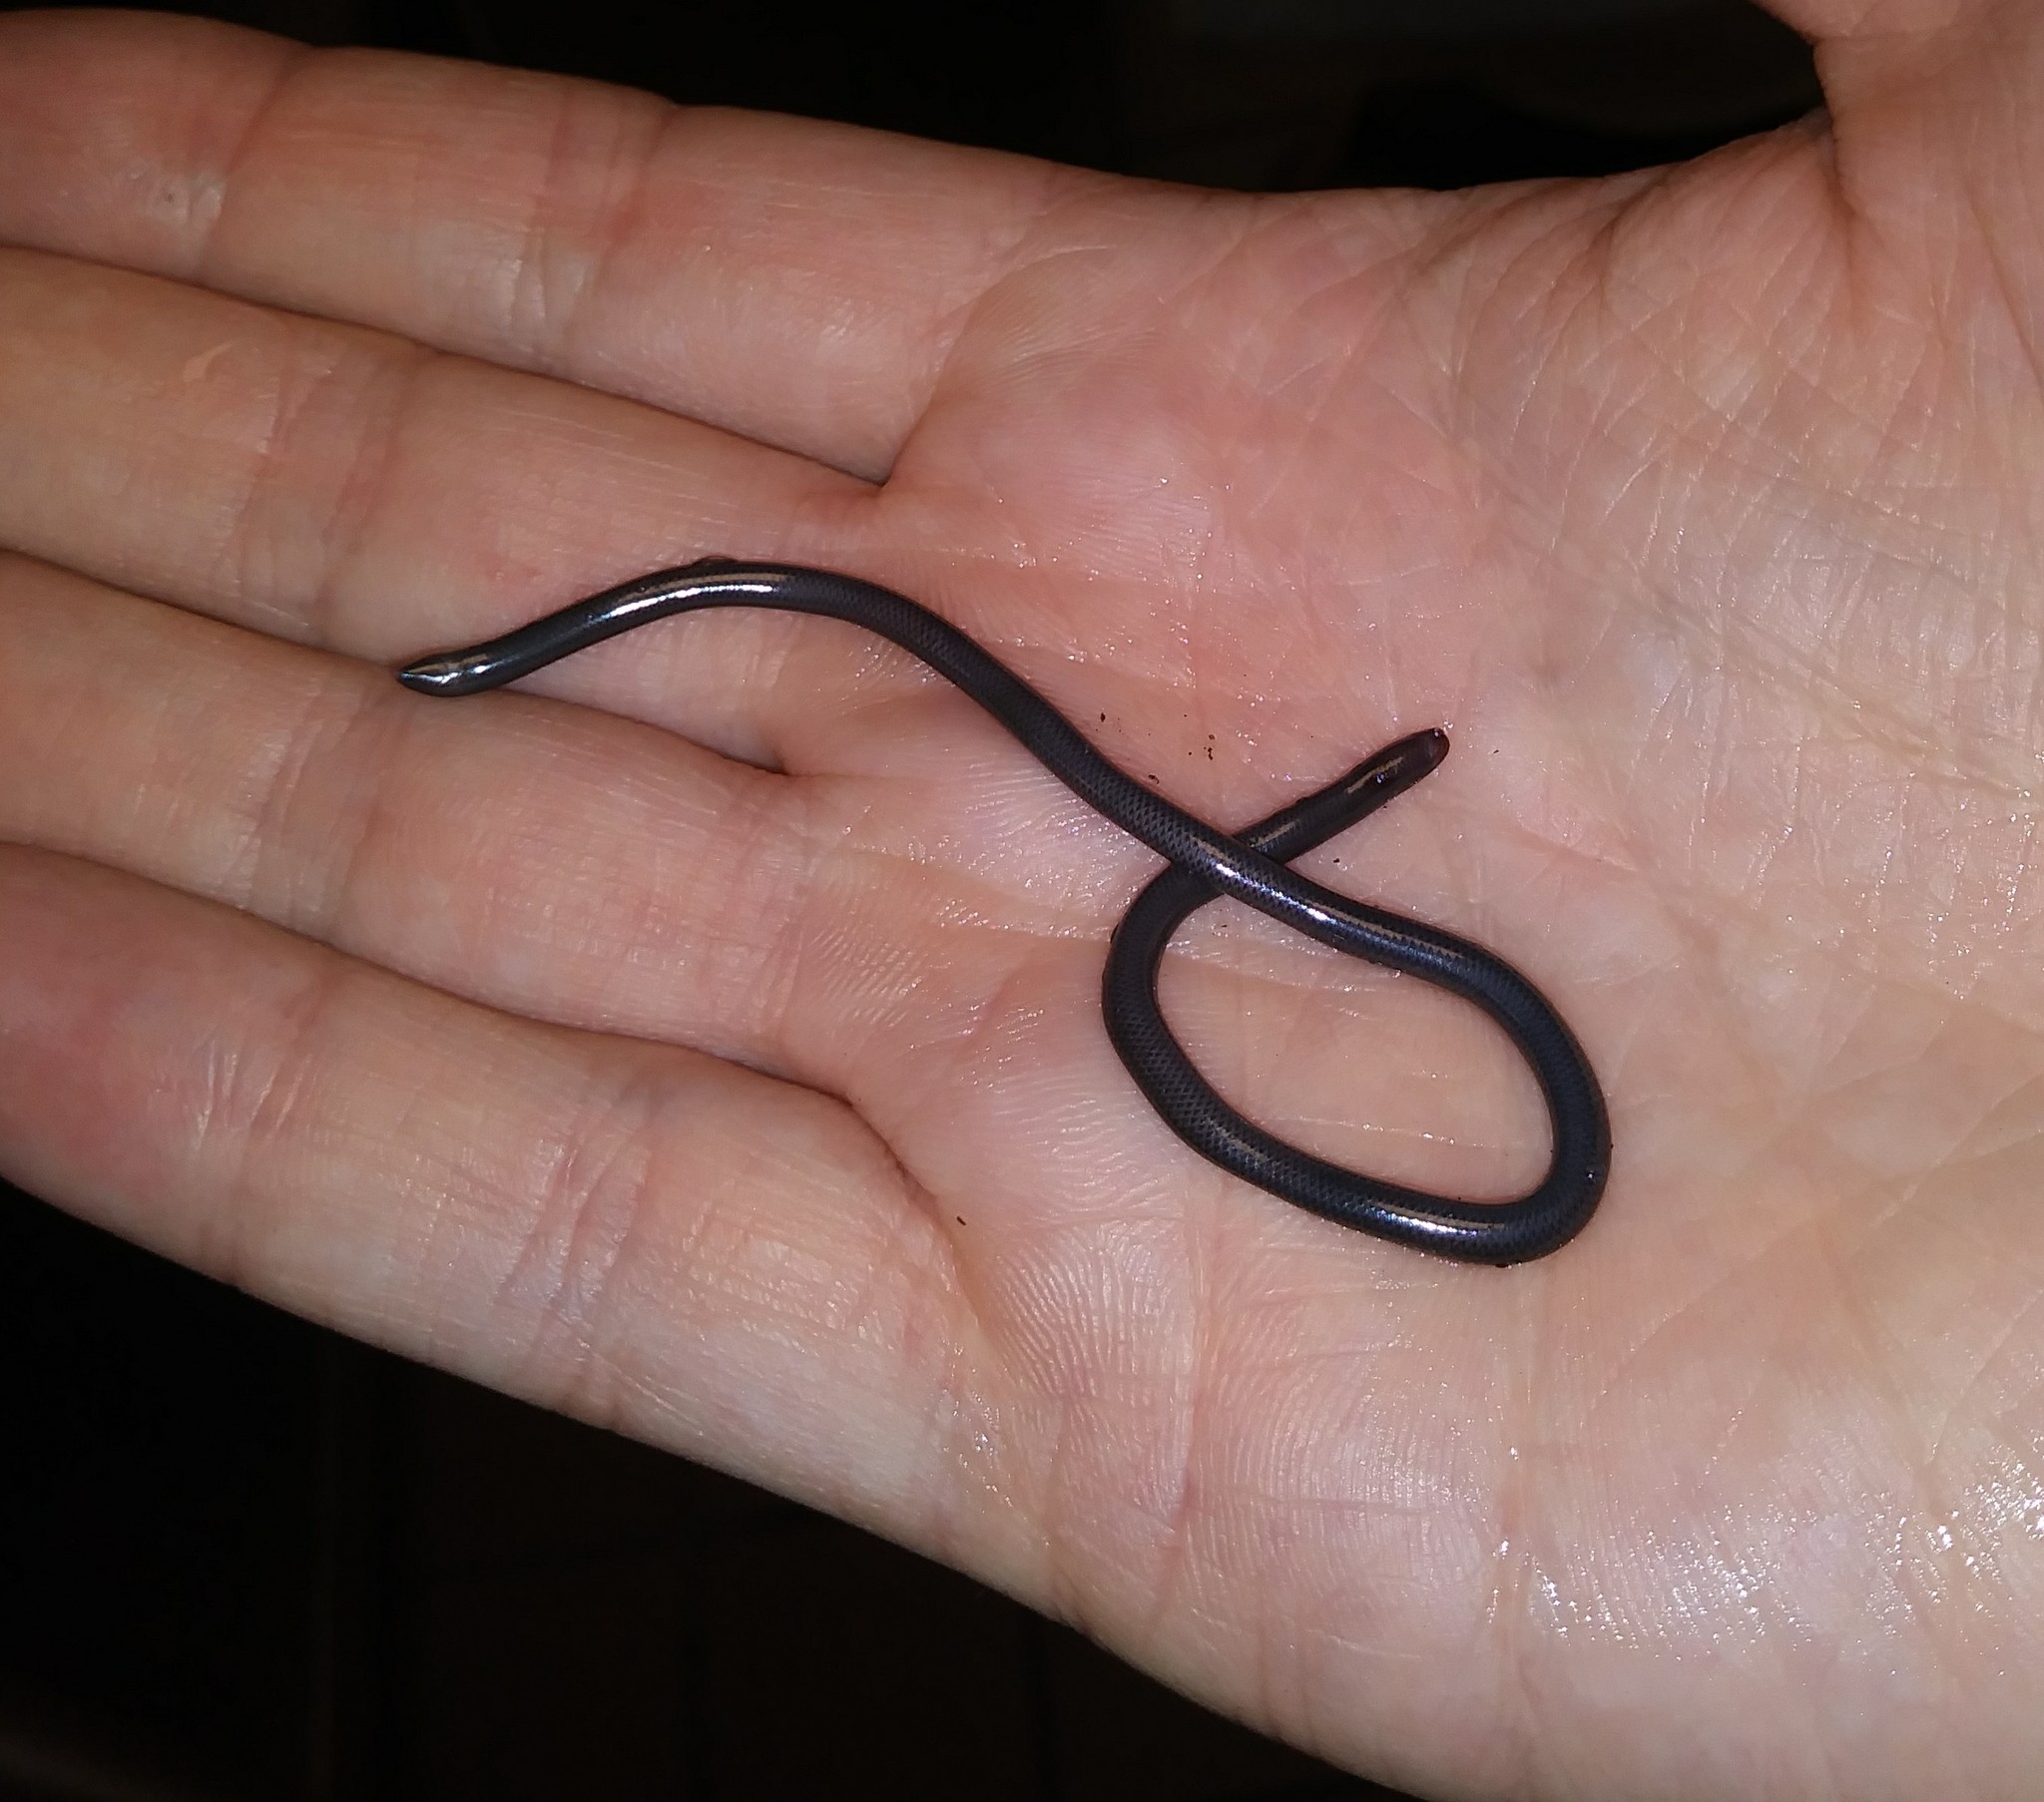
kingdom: Animalia
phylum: Chordata
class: Squamata
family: Typhlopidae
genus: Indotyphlops
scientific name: Indotyphlops braminus
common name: Brahminy blindsnake
